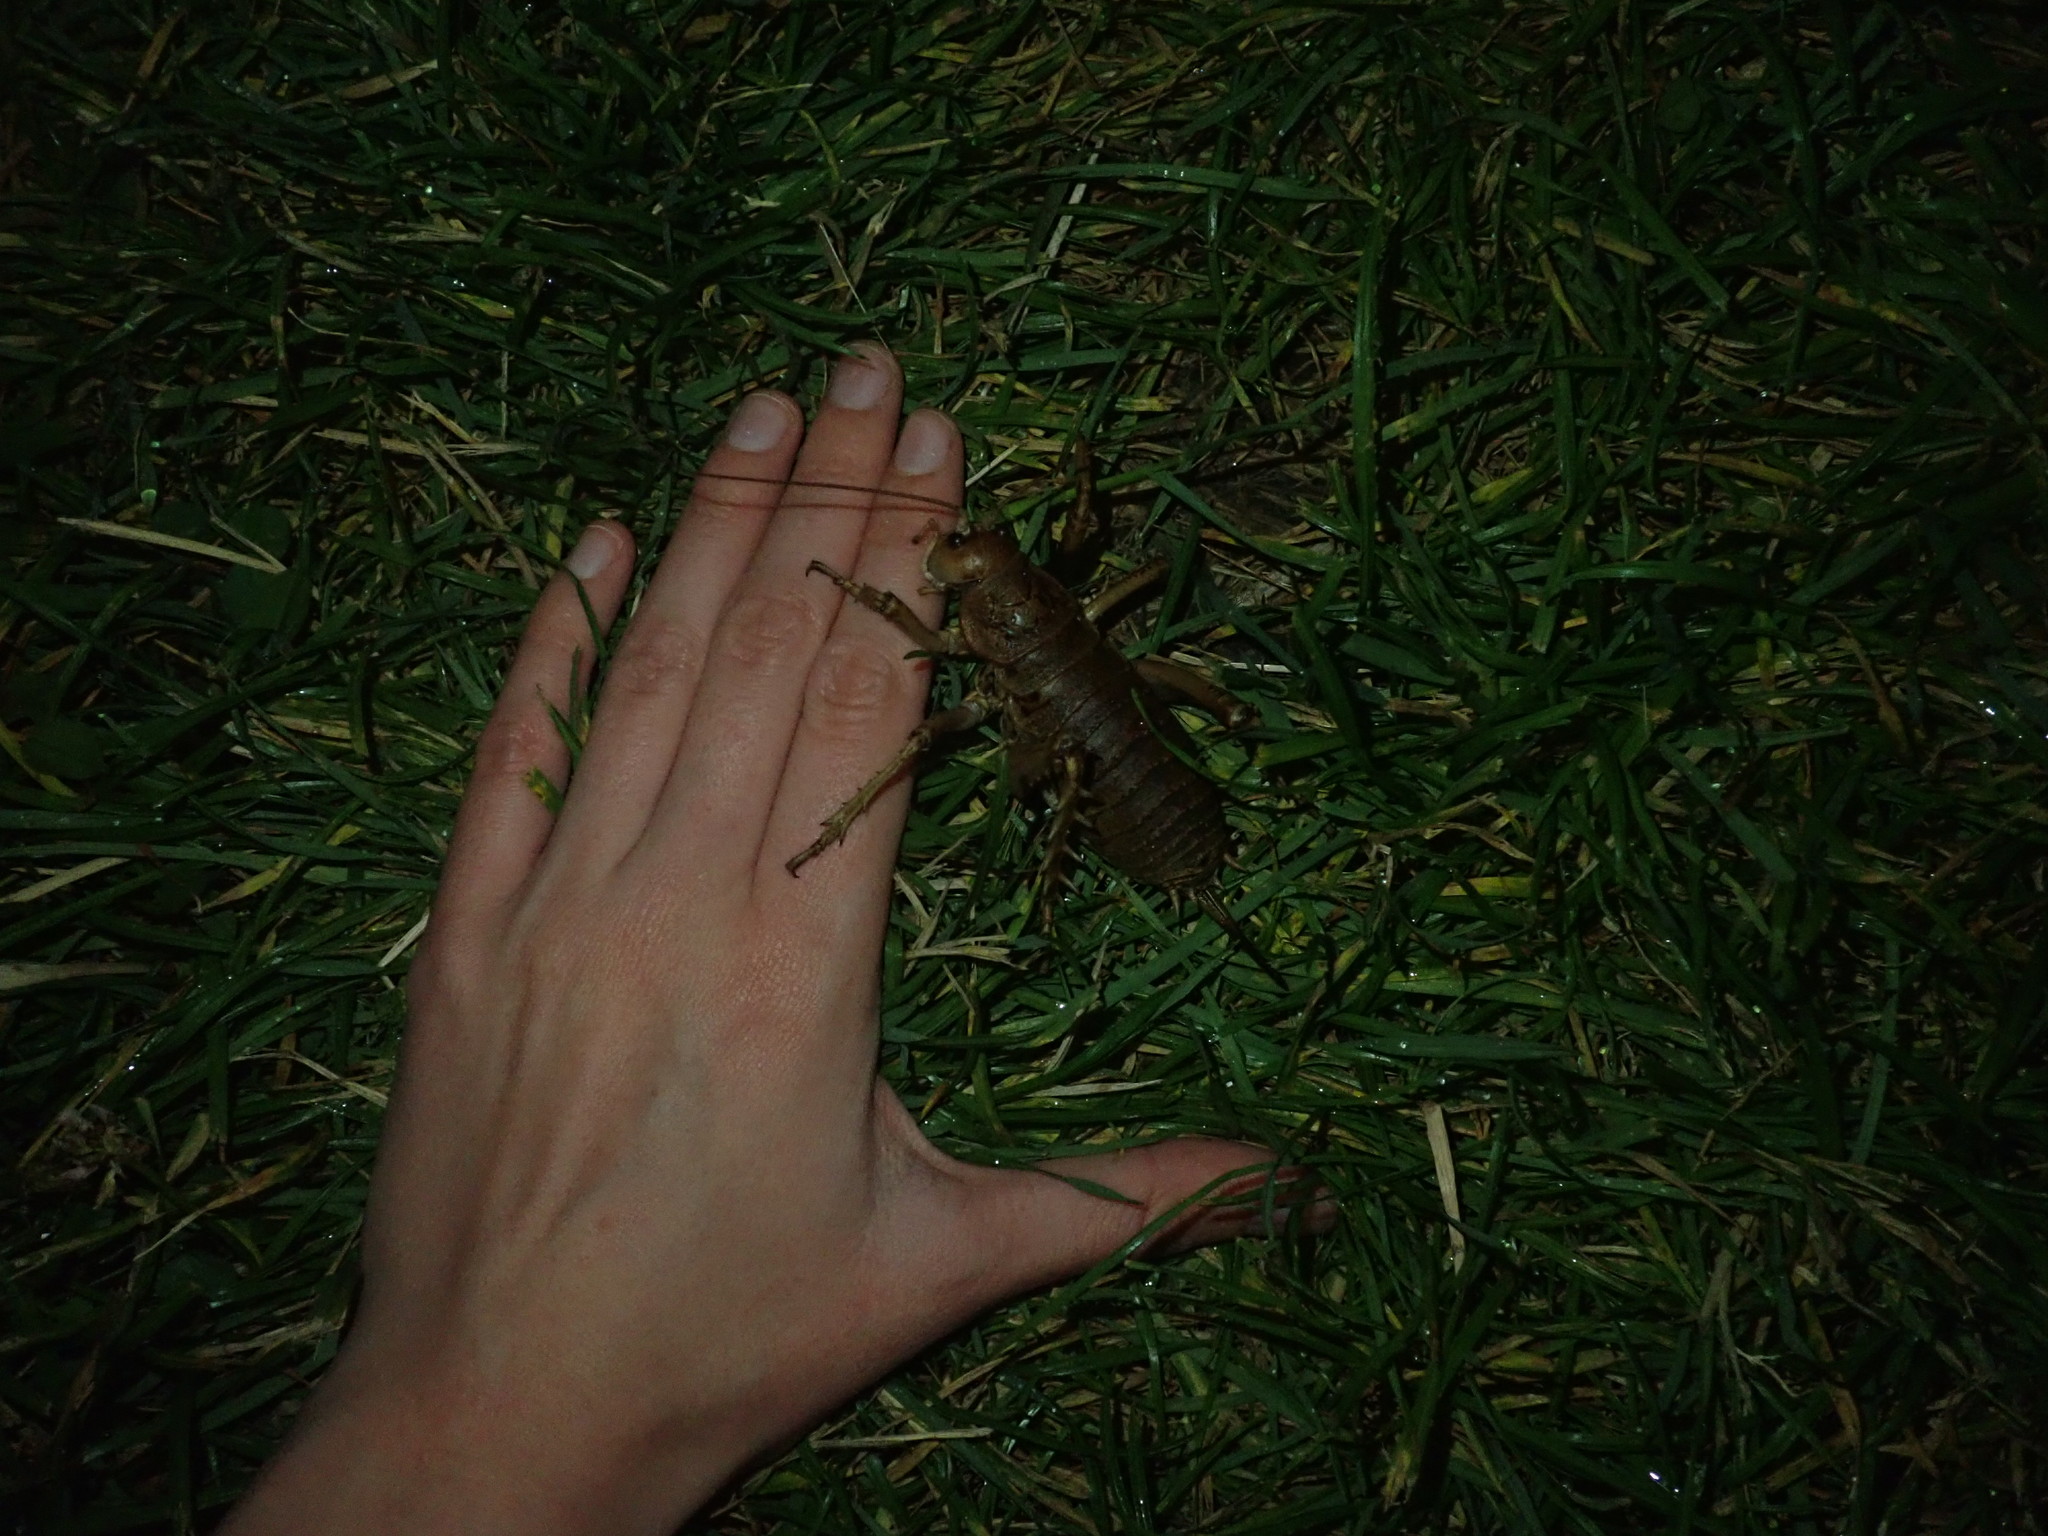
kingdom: Animalia
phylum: Arthropoda
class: Insecta
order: Orthoptera
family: Anostostomatidae
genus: Deinacrida
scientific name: Deinacrida rugosa
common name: Stephens island weta
